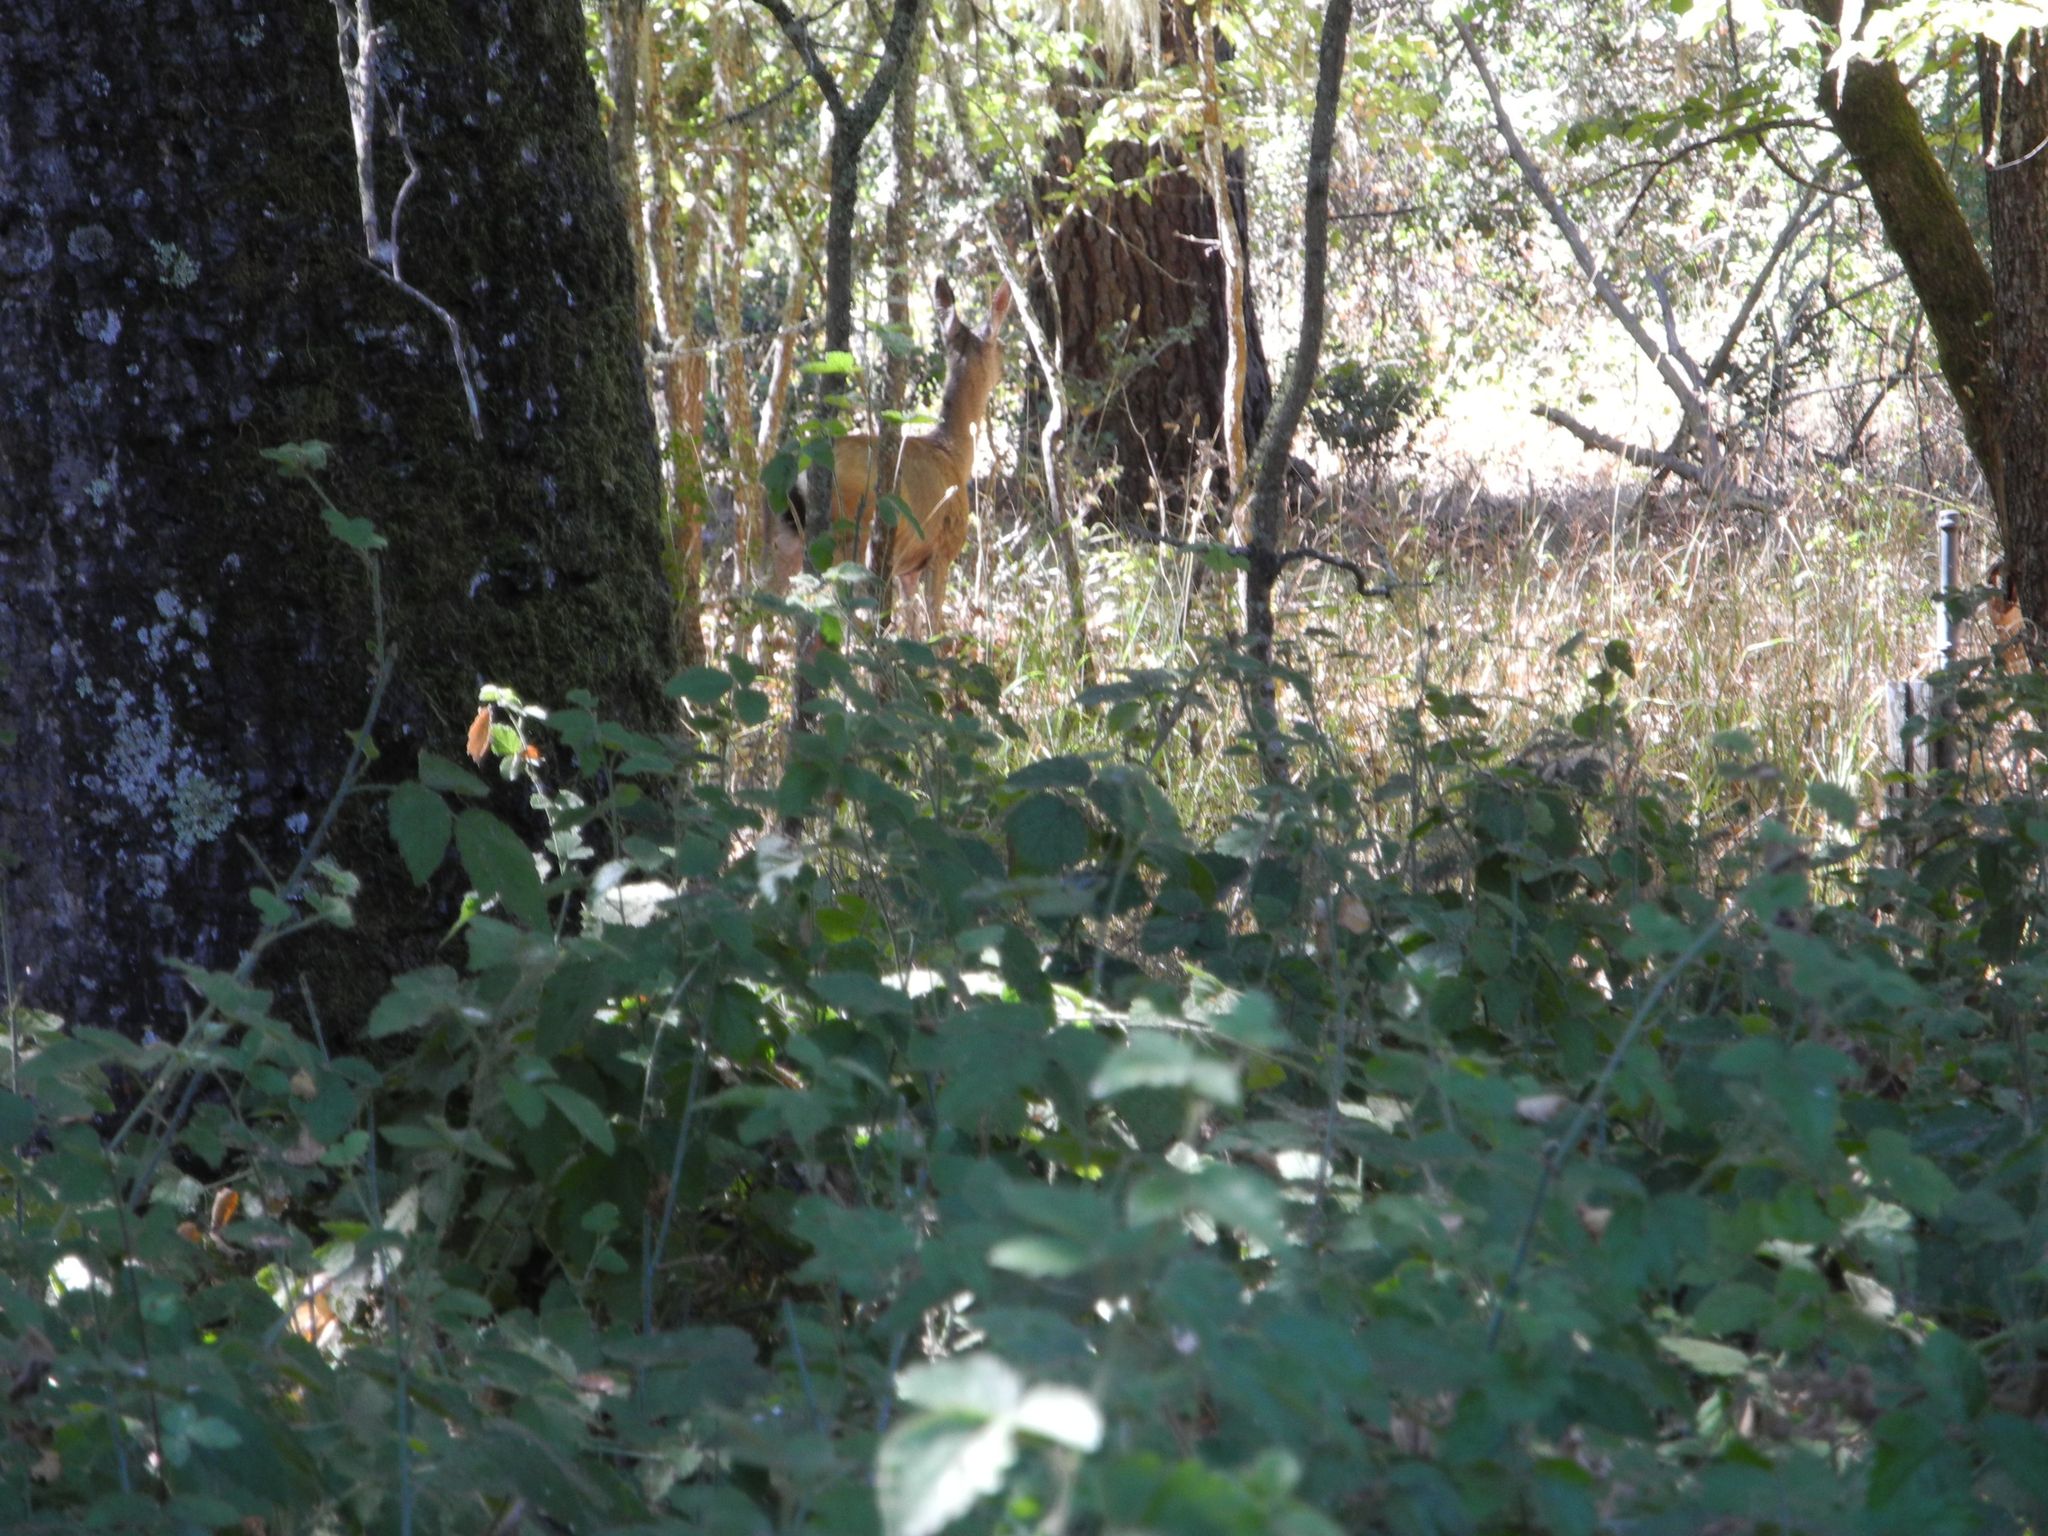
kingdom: Animalia
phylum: Chordata
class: Mammalia
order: Artiodactyla
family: Cervidae
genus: Odocoileus
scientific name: Odocoileus hemionus
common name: Mule deer
